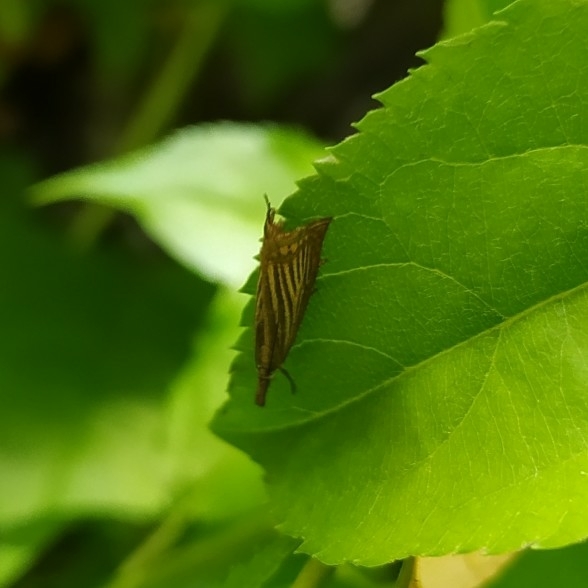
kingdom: Animalia
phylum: Arthropoda
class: Insecta
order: Lepidoptera
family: Crambidae
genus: Chrysoteuchia
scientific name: Chrysoteuchia culmella
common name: Garden grass-veneer
